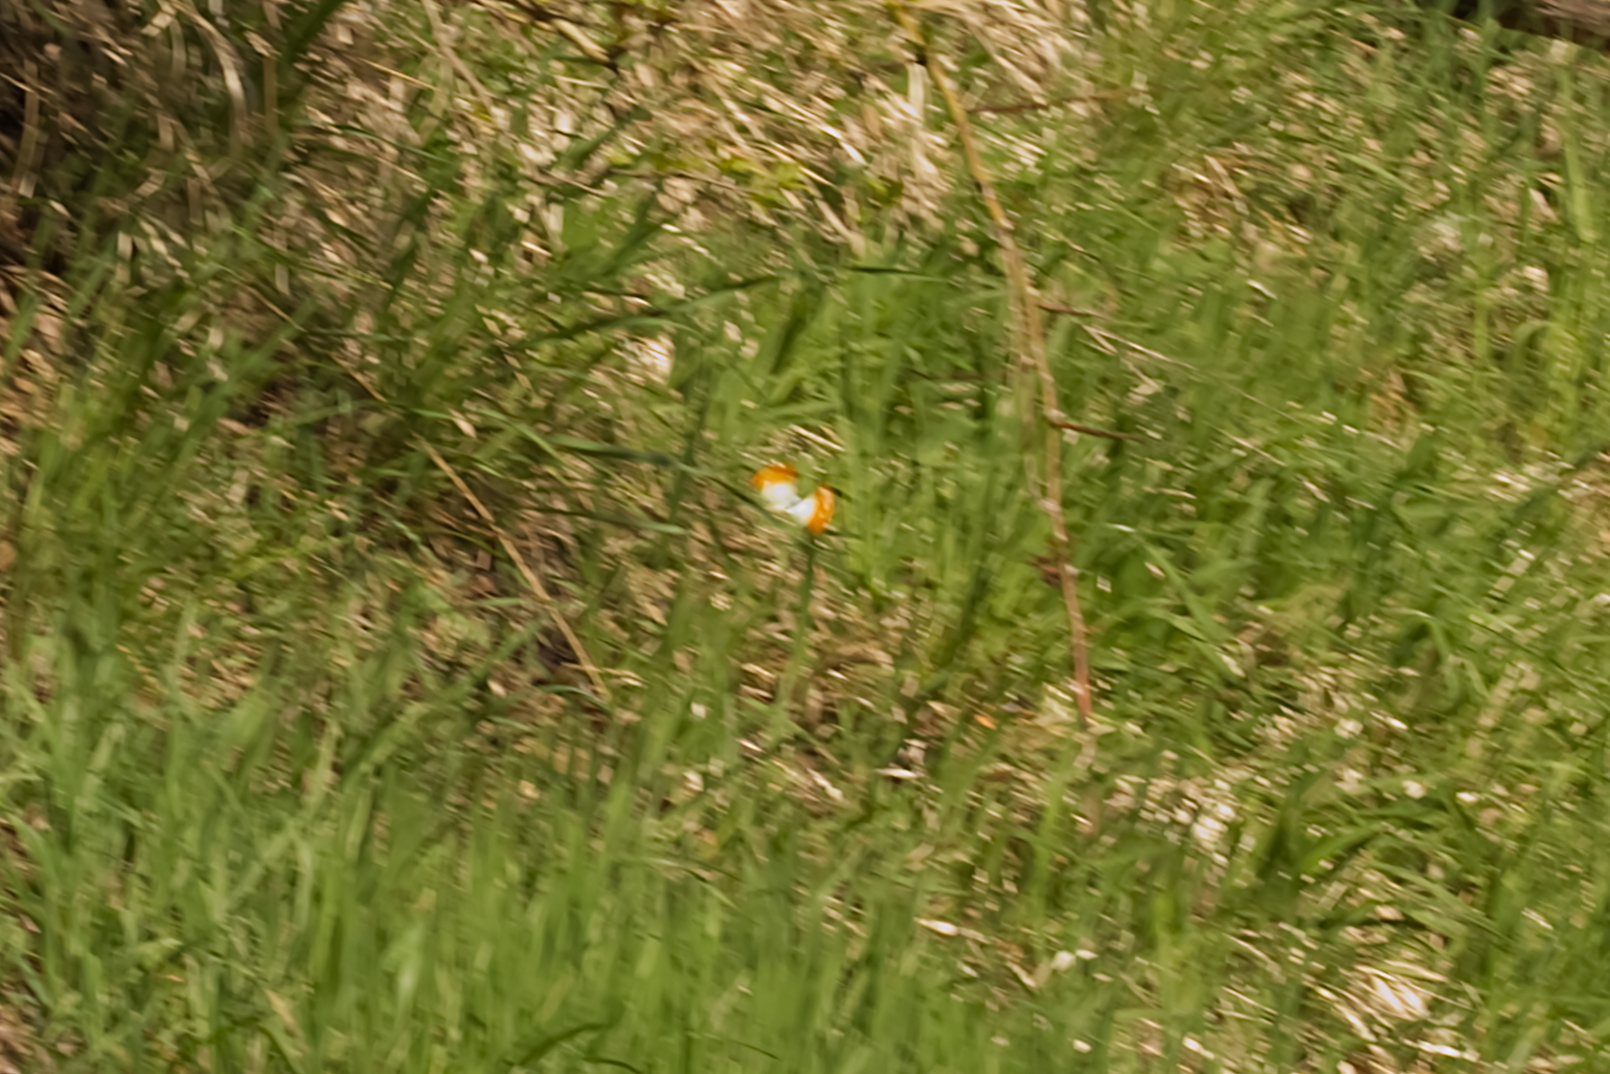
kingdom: Animalia
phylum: Arthropoda
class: Insecta
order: Lepidoptera
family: Pieridae
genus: Anthocharis
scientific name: Anthocharis cardamines
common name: Orange-tip
